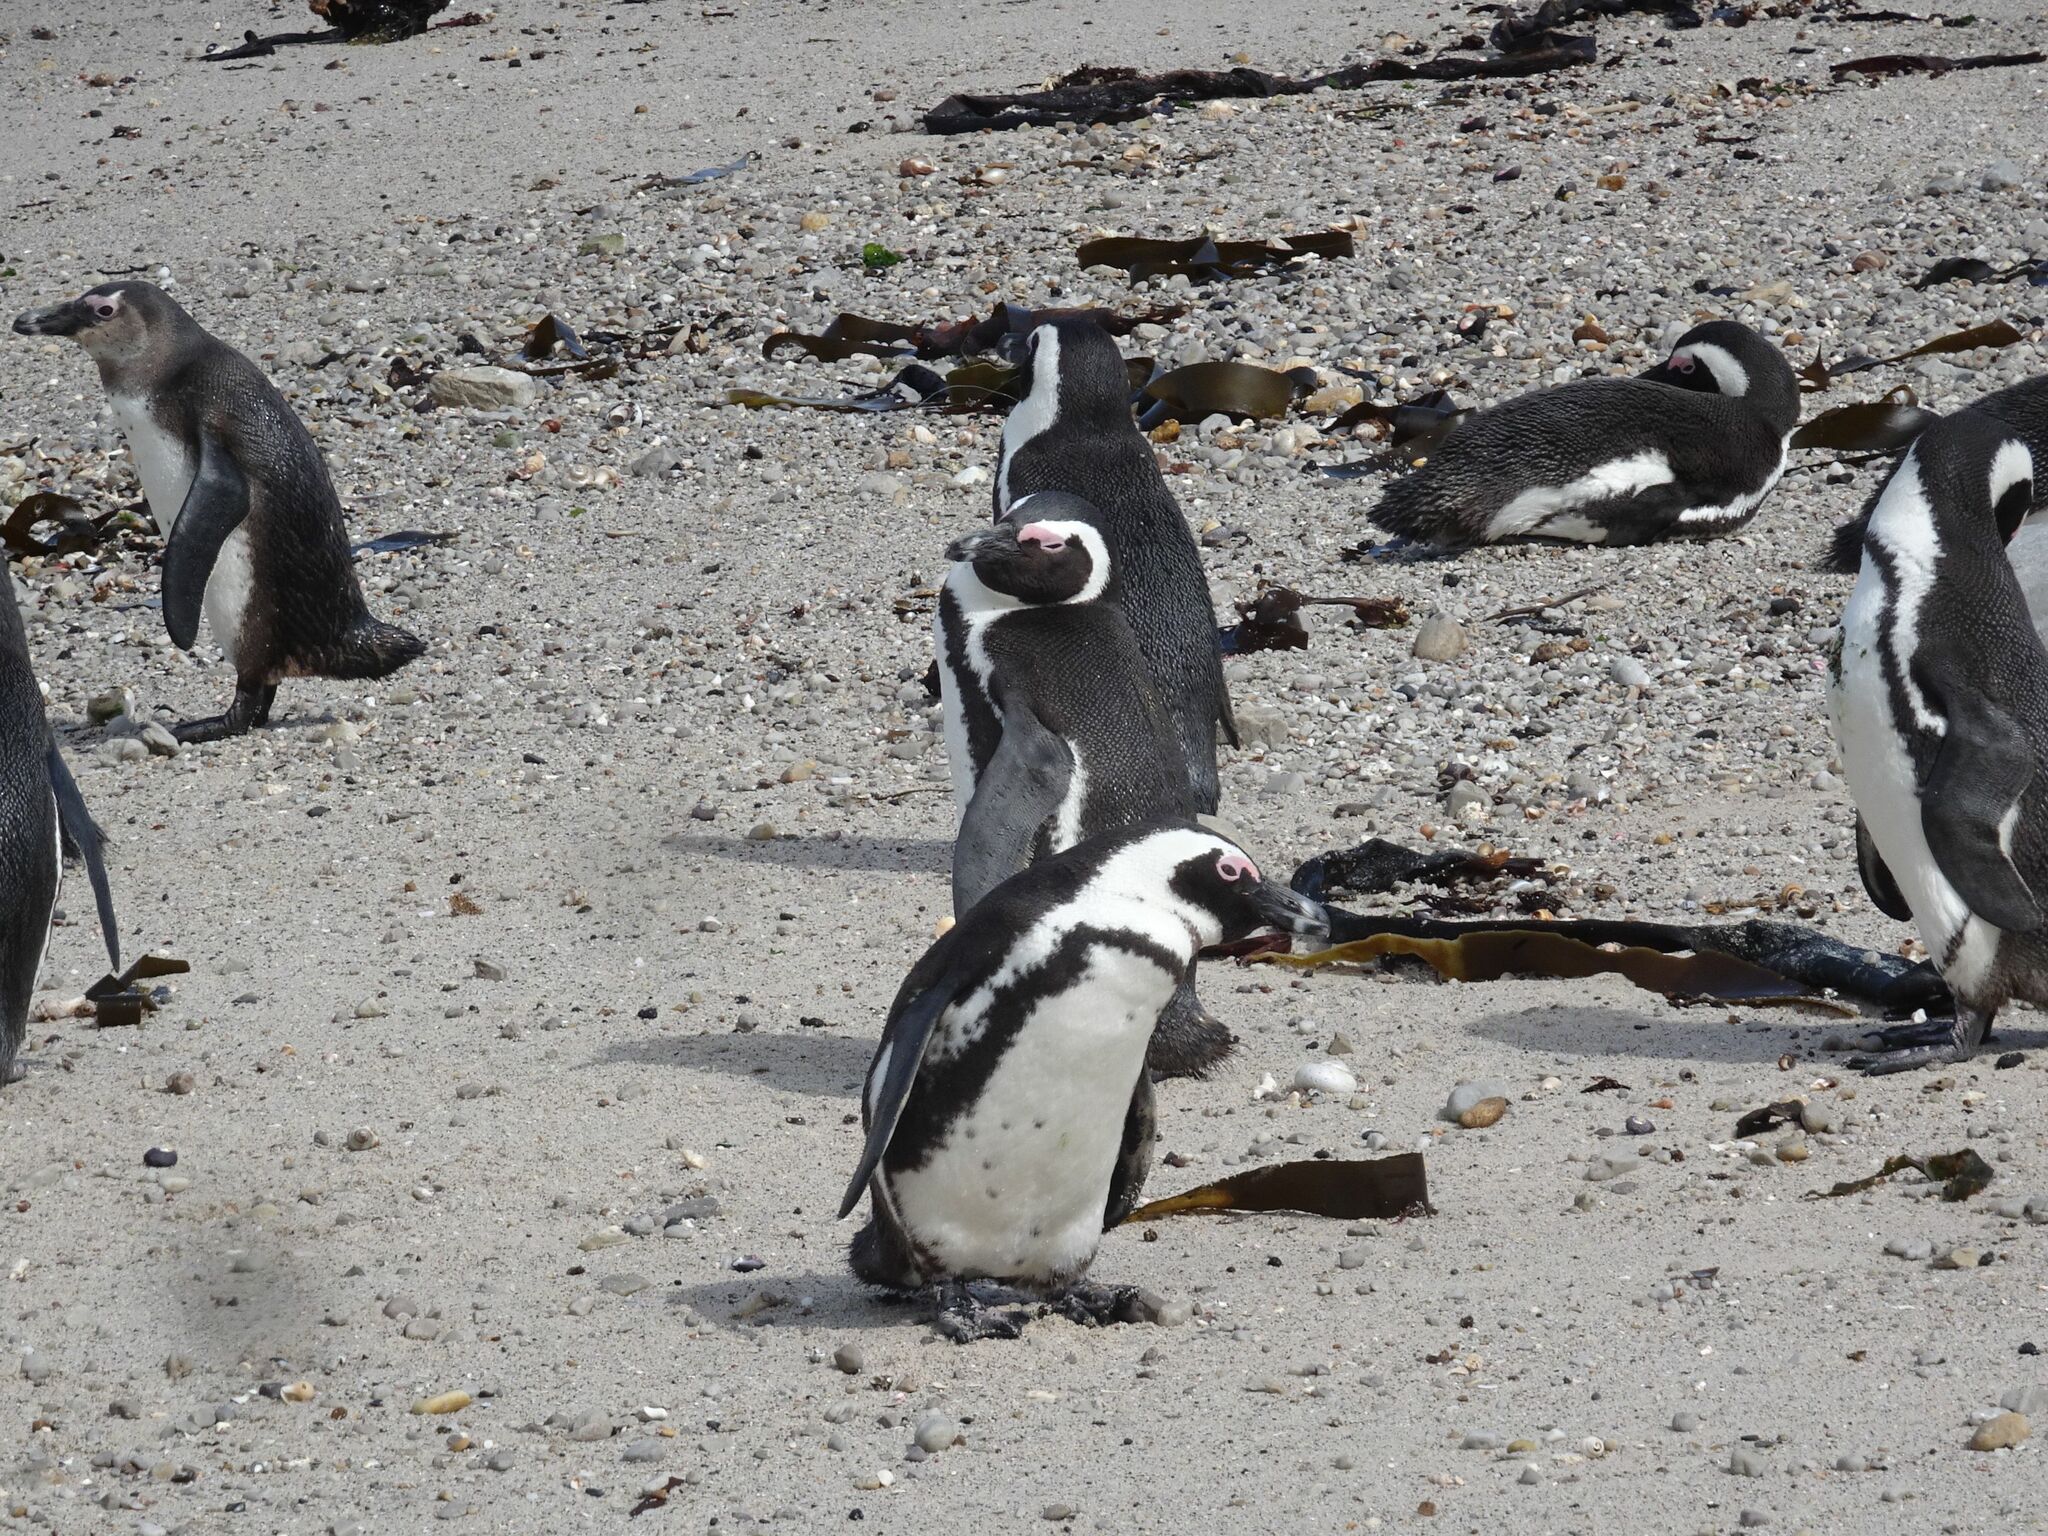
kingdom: Animalia
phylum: Chordata
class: Aves
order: Sphenisciformes
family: Spheniscidae
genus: Spheniscus
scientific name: Spheniscus demersus
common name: African penguin
